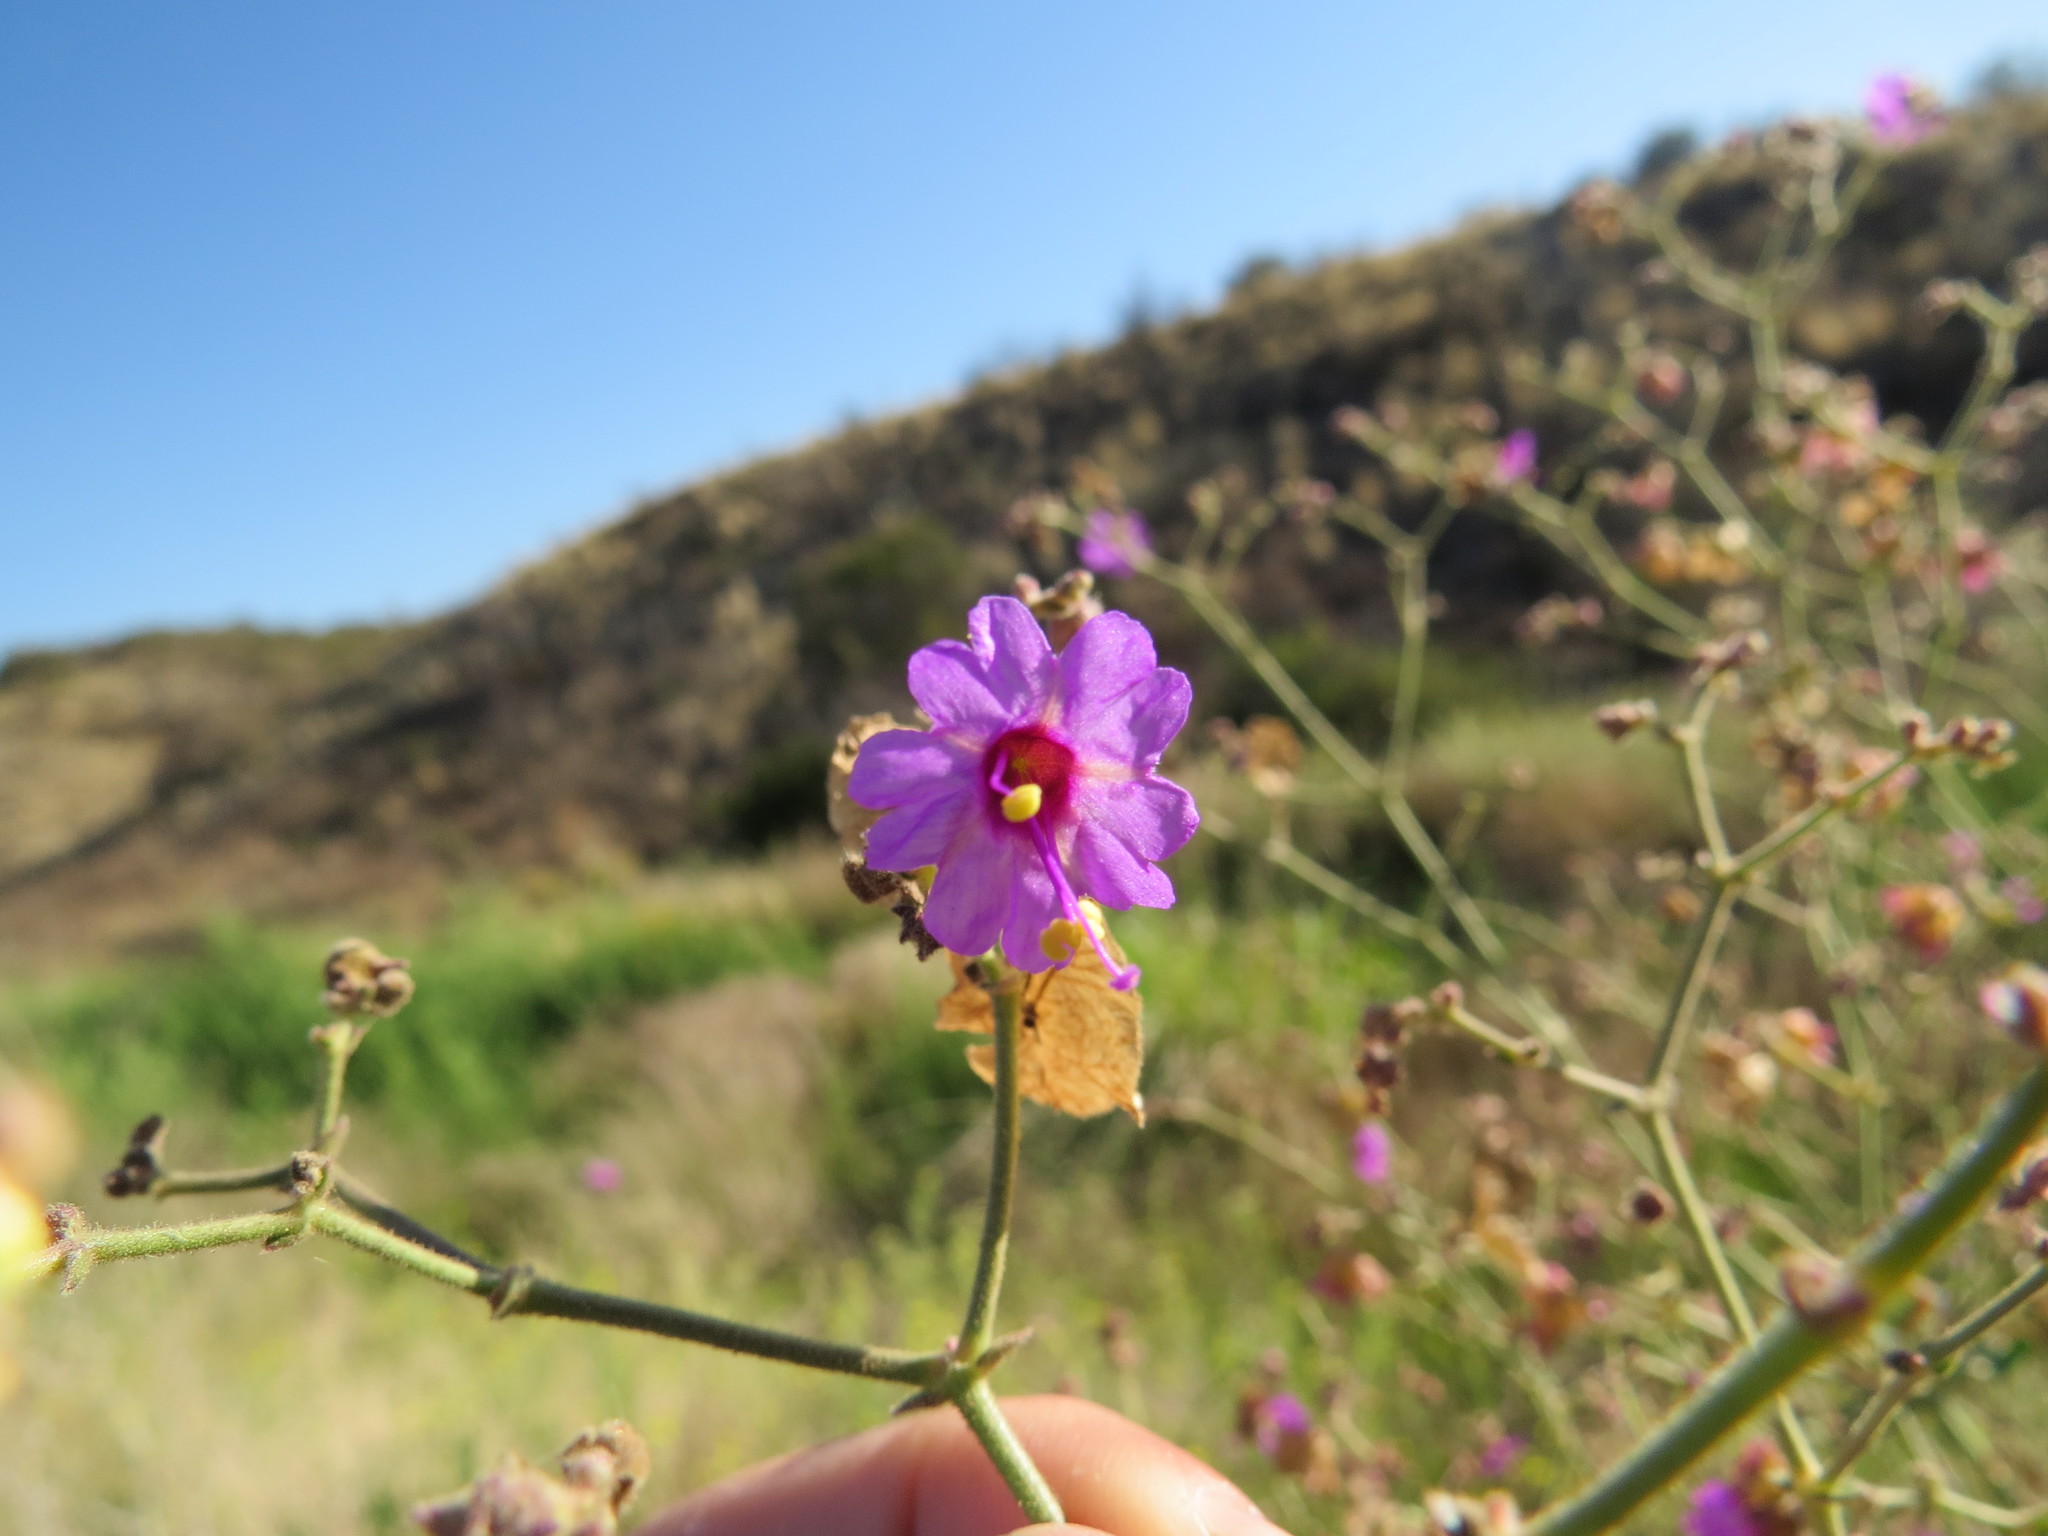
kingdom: Plantae
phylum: Tracheophyta
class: Magnoliopsida
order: Caryophyllales
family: Nyctaginaceae
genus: Mirabilis
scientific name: Mirabilis ovata
